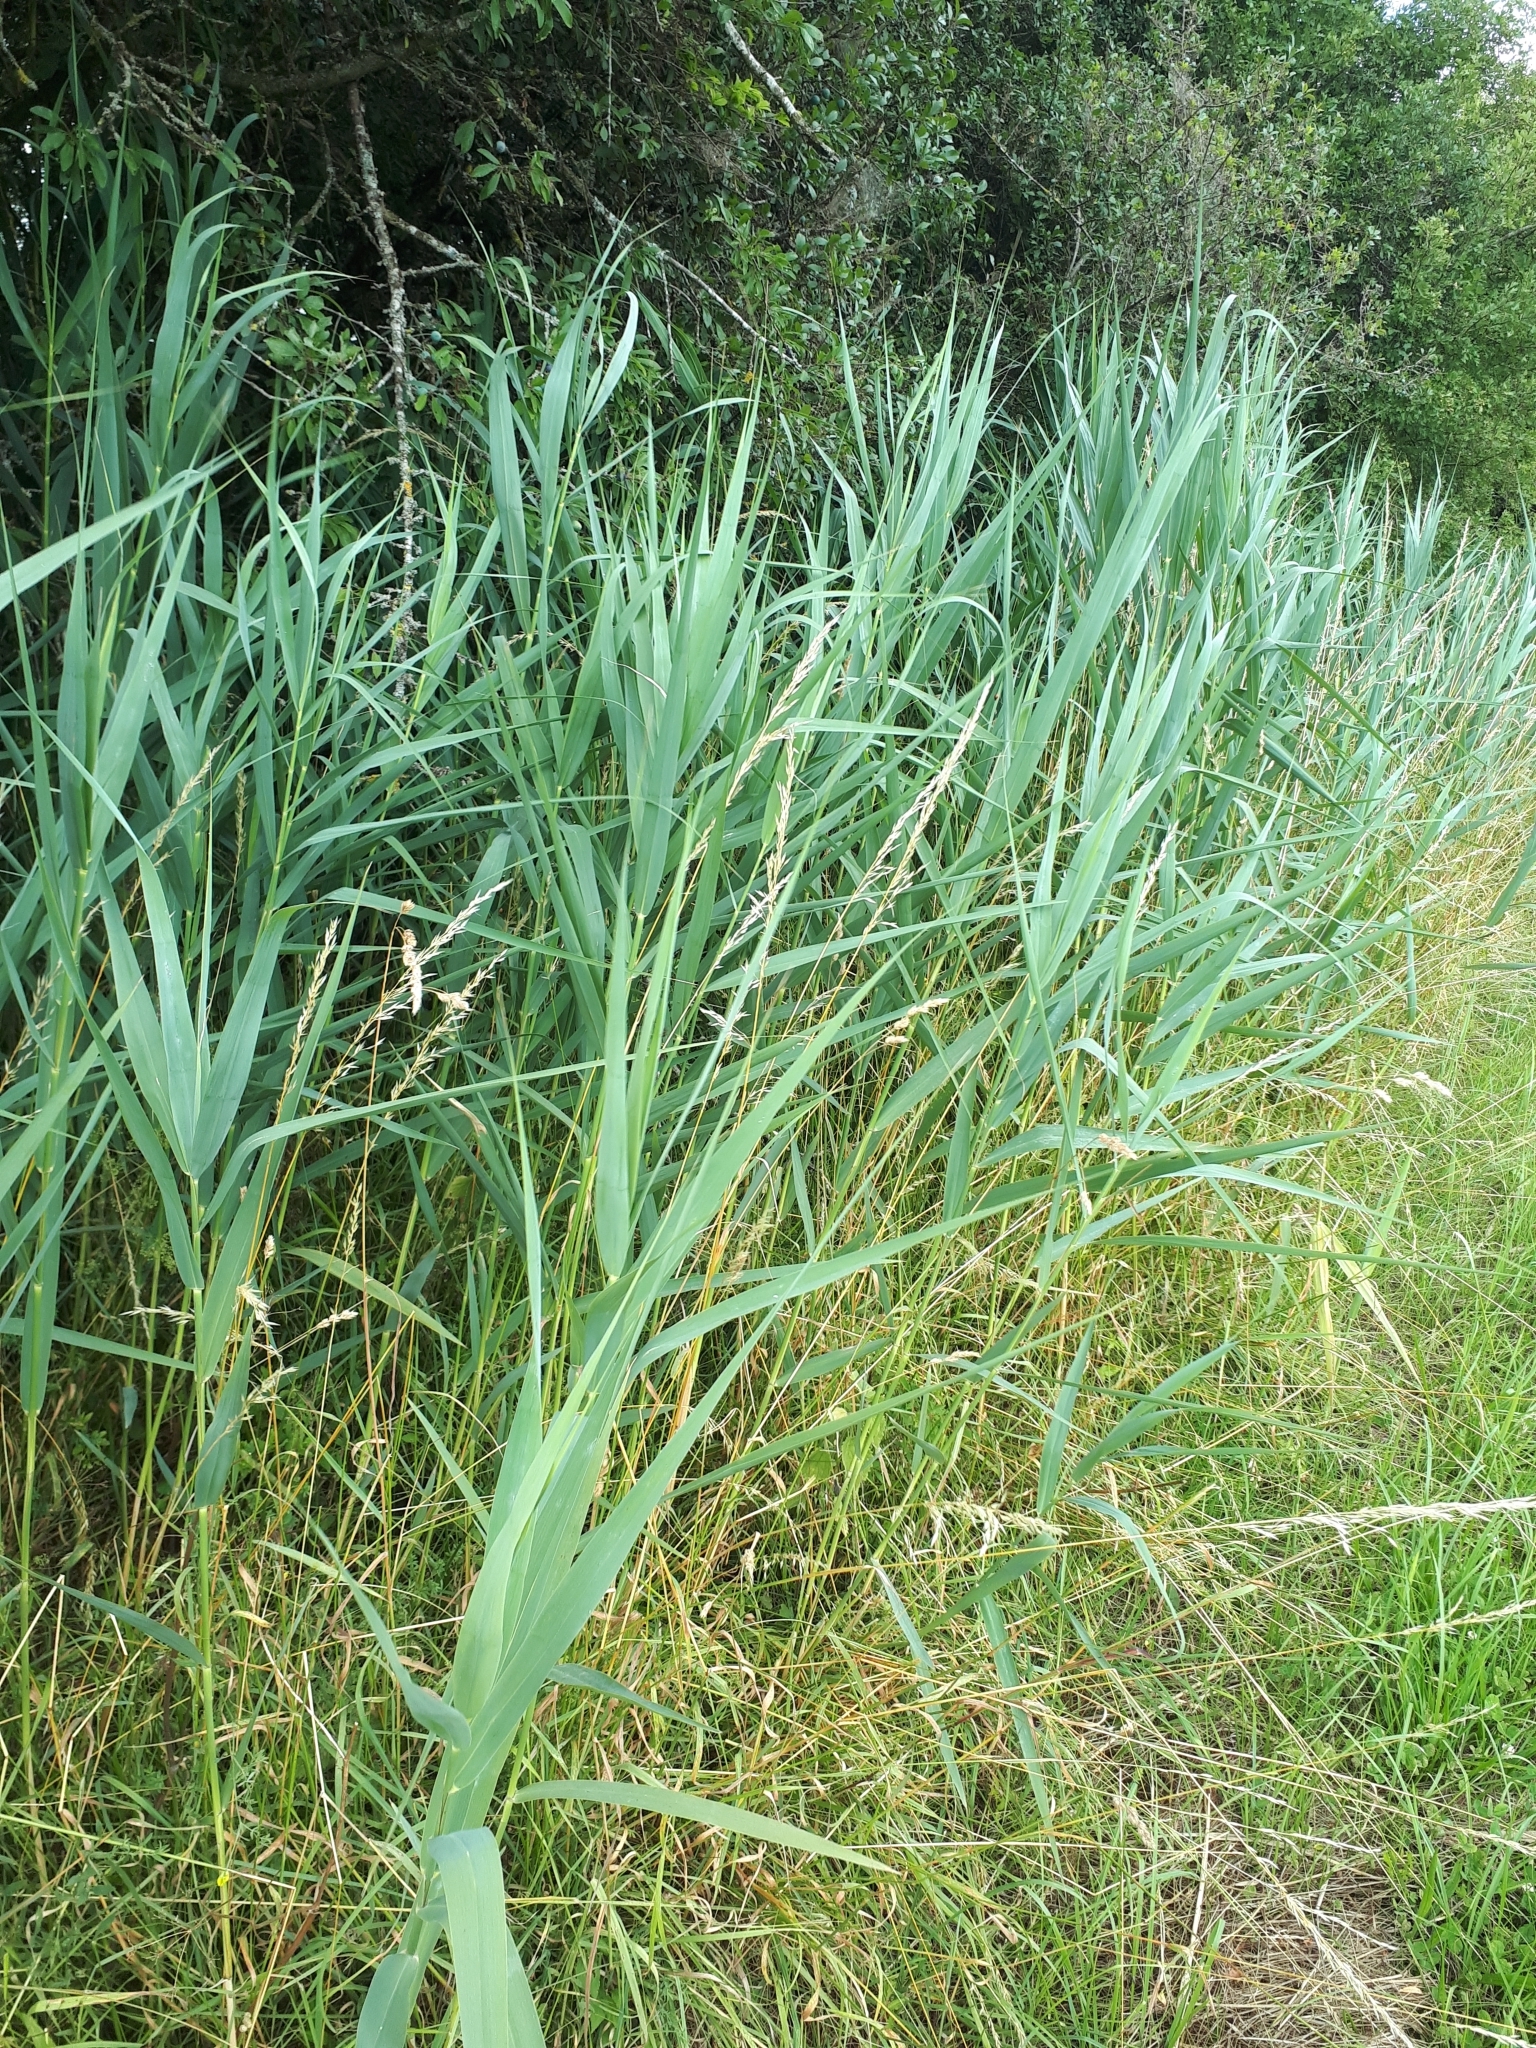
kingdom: Plantae
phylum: Tracheophyta
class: Liliopsida
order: Poales
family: Poaceae
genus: Phragmites
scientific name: Phragmites australis
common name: Common reed
